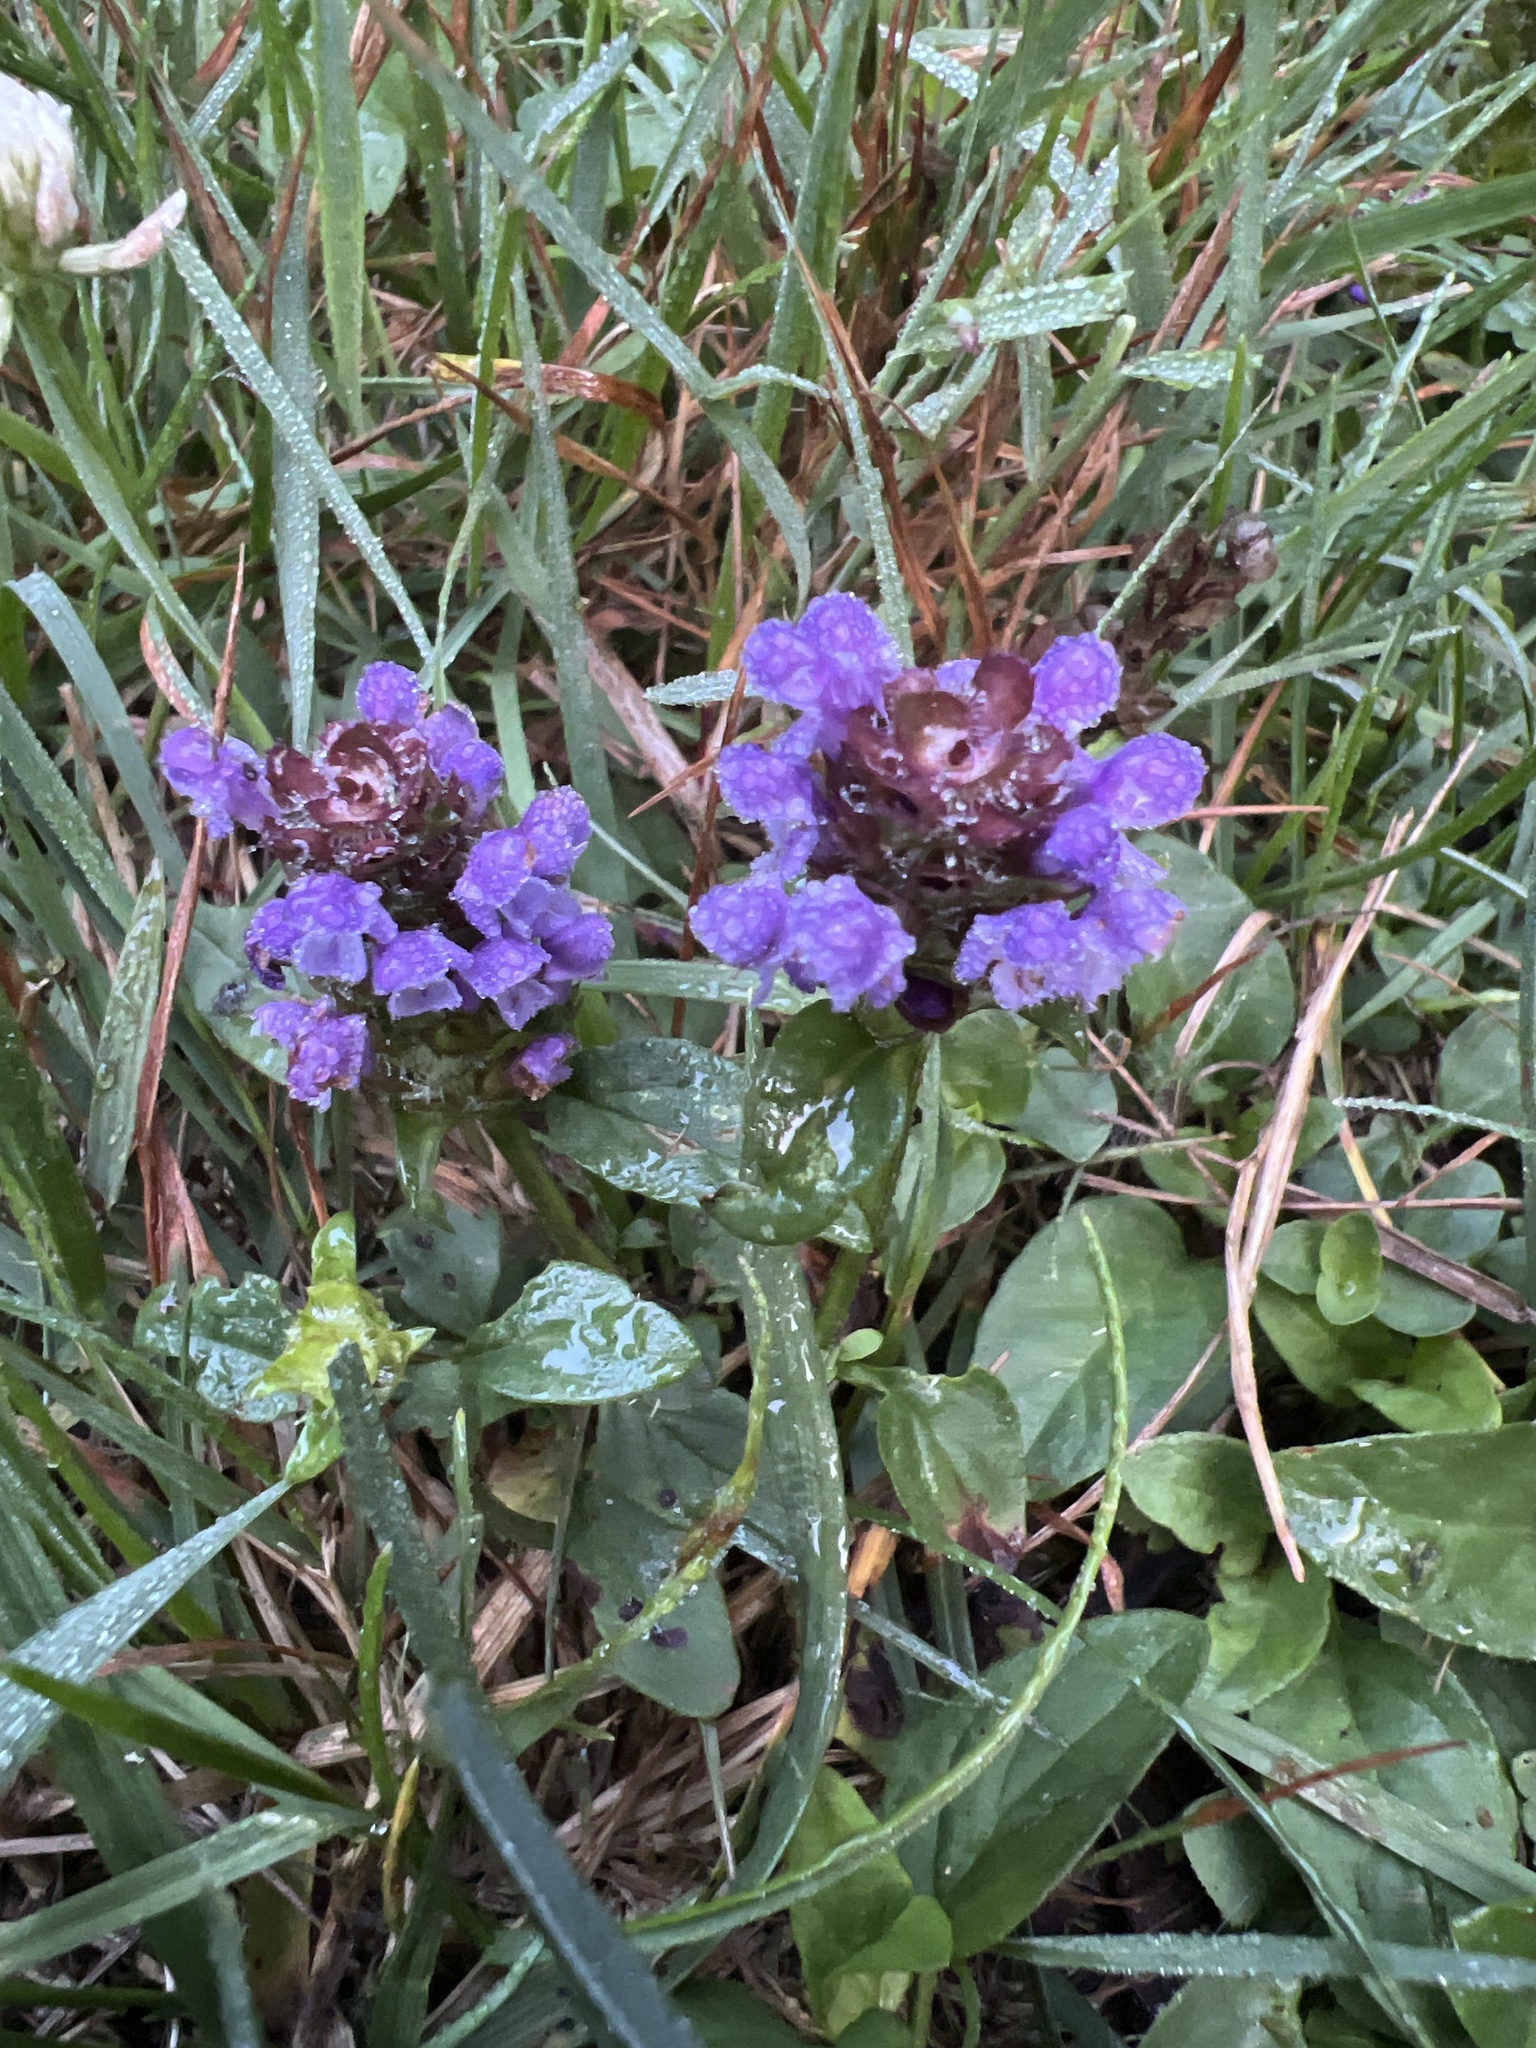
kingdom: Plantae
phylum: Tracheophyta
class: Magnoliopsida
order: Lamiales
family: Lamiaceae
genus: Prunella
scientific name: Prunella vulgaris
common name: Heal-all
